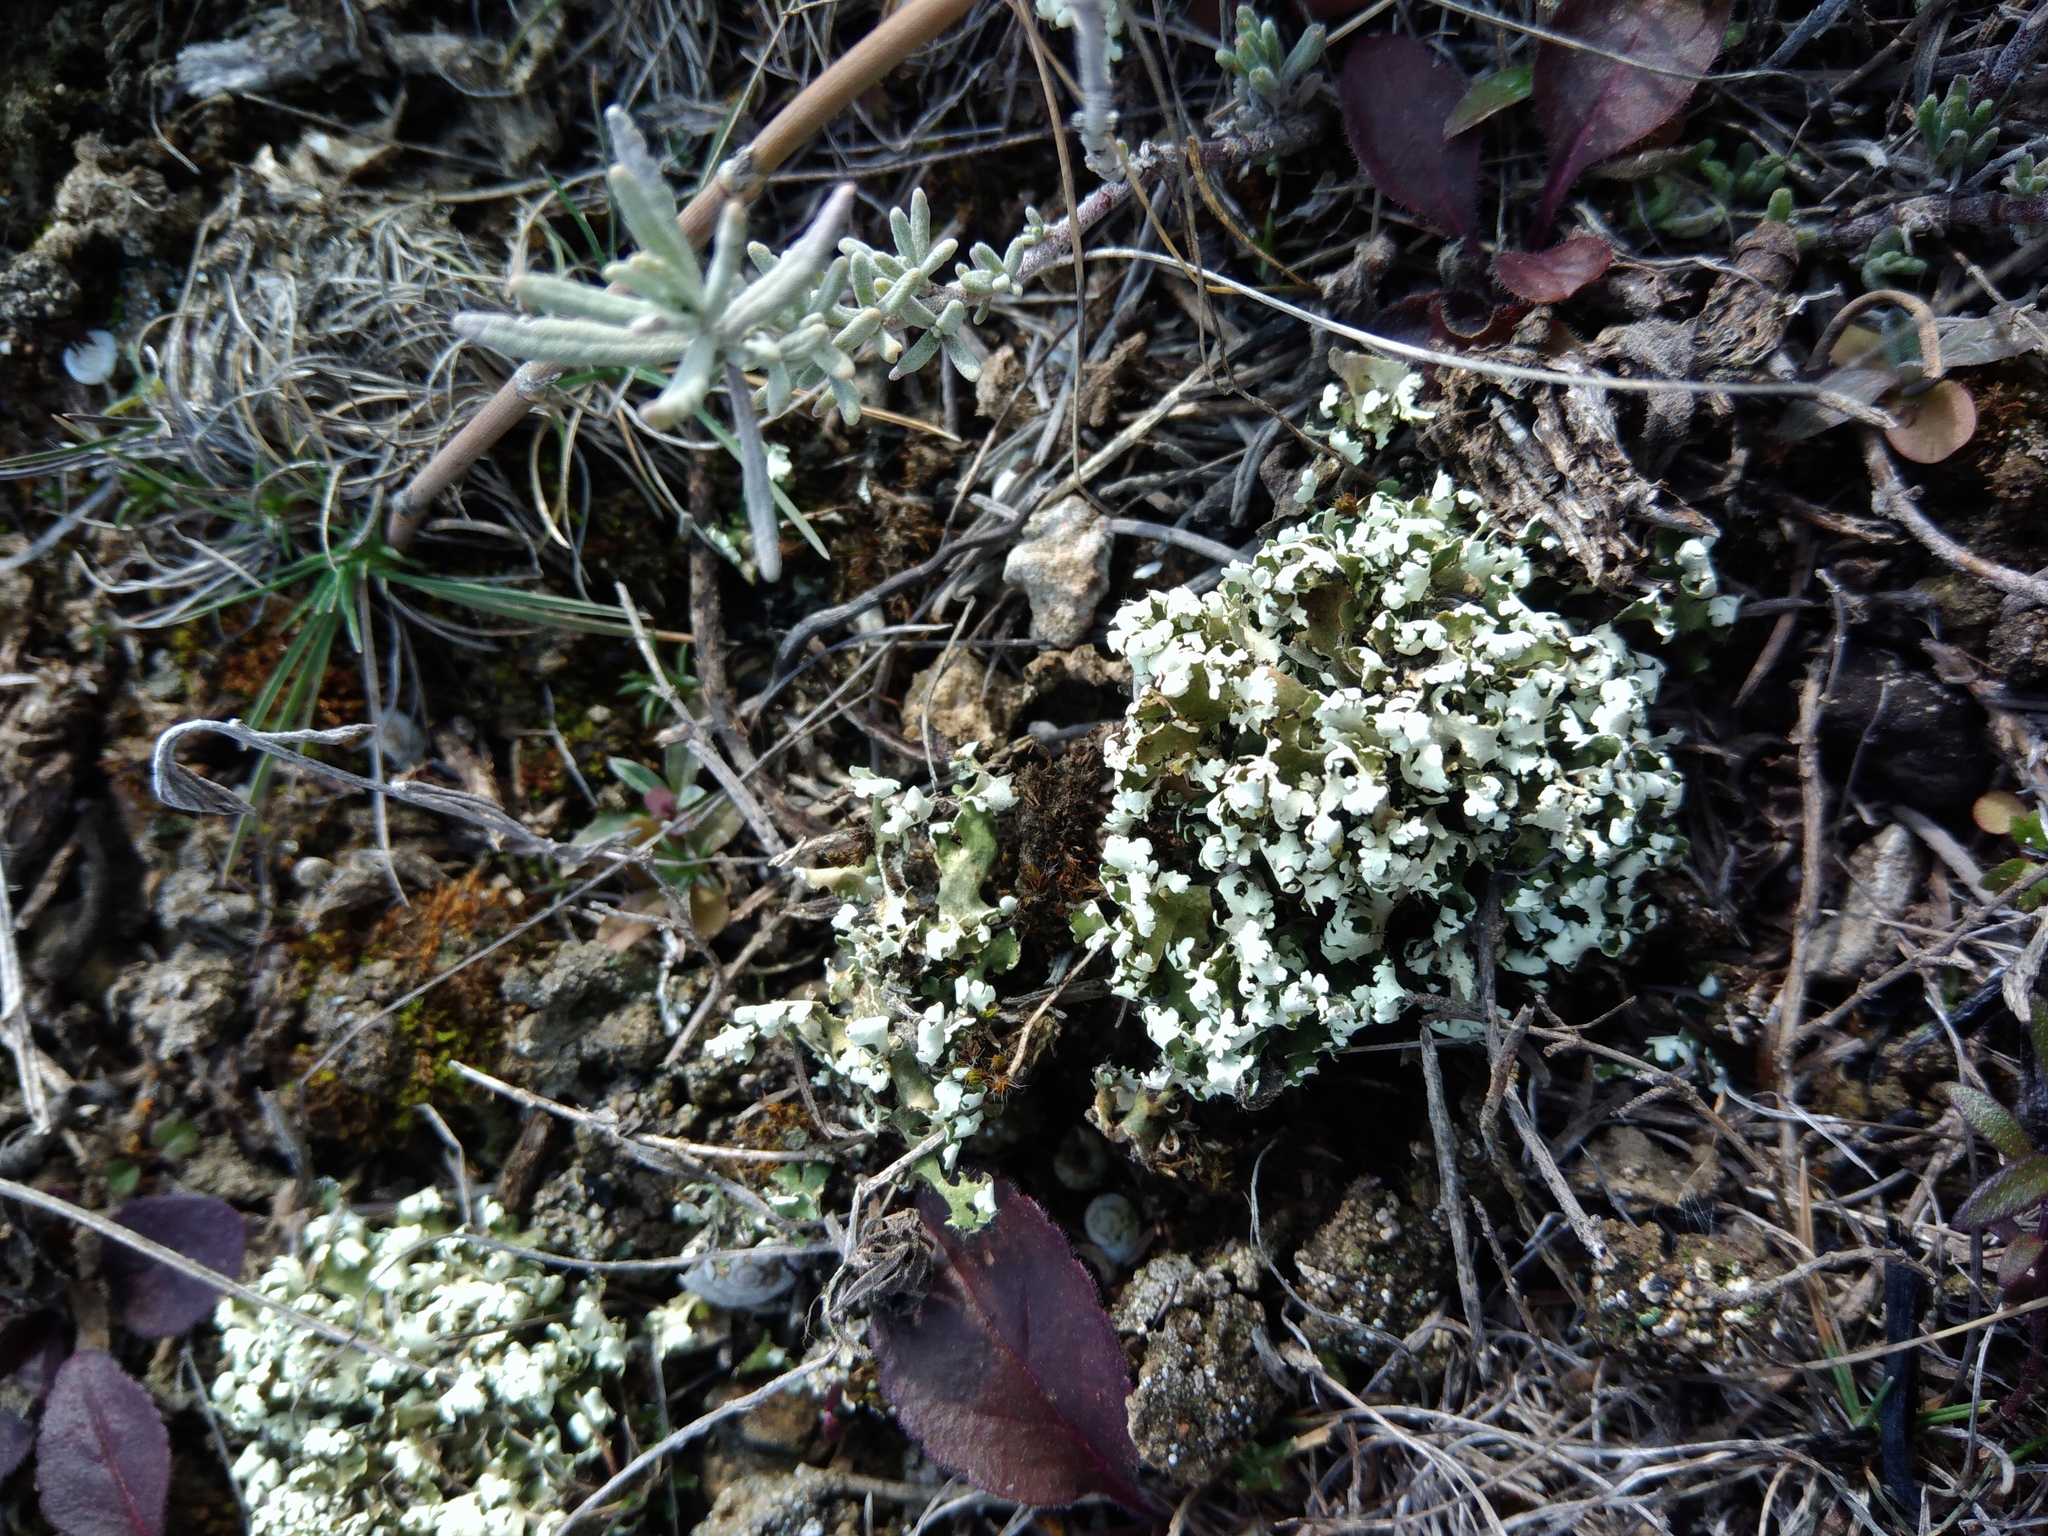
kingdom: Fungi
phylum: Ascomycota
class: Lecanoromycetes
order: Lecanorales
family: Cladoniaceae
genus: Cladonia
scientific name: Cladonia foliacea
